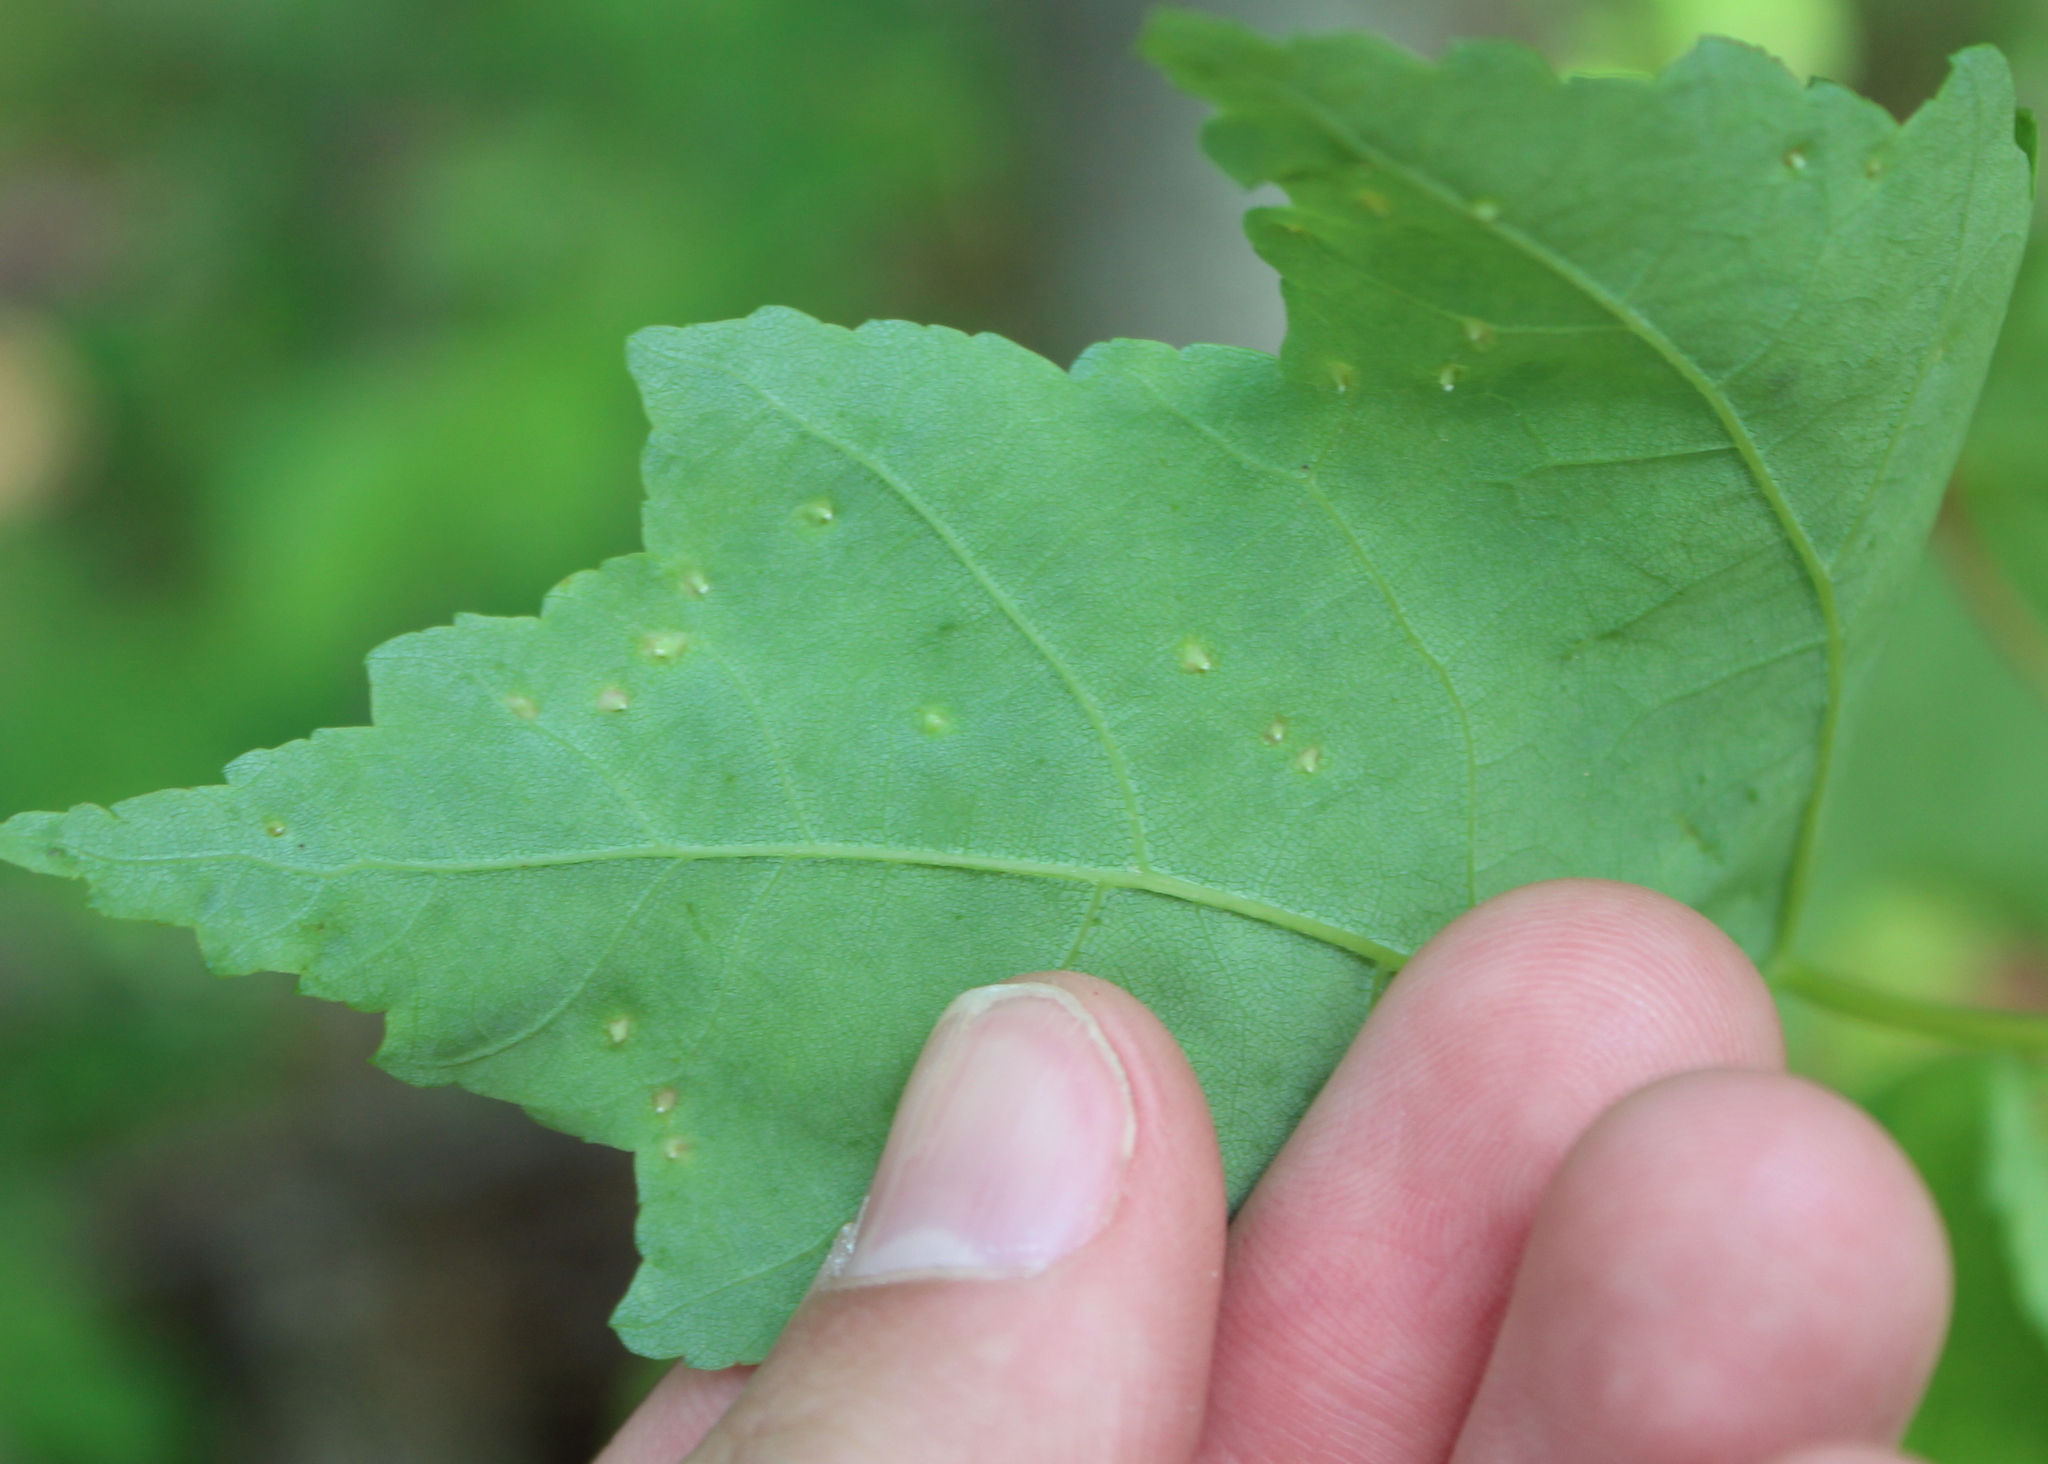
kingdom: Animalia
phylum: Arthropoda
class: Arachnida
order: Trombidiformes
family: Eriophyidae
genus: Vasates
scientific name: Vasates quadripedes
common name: Maple bladder gall mite
